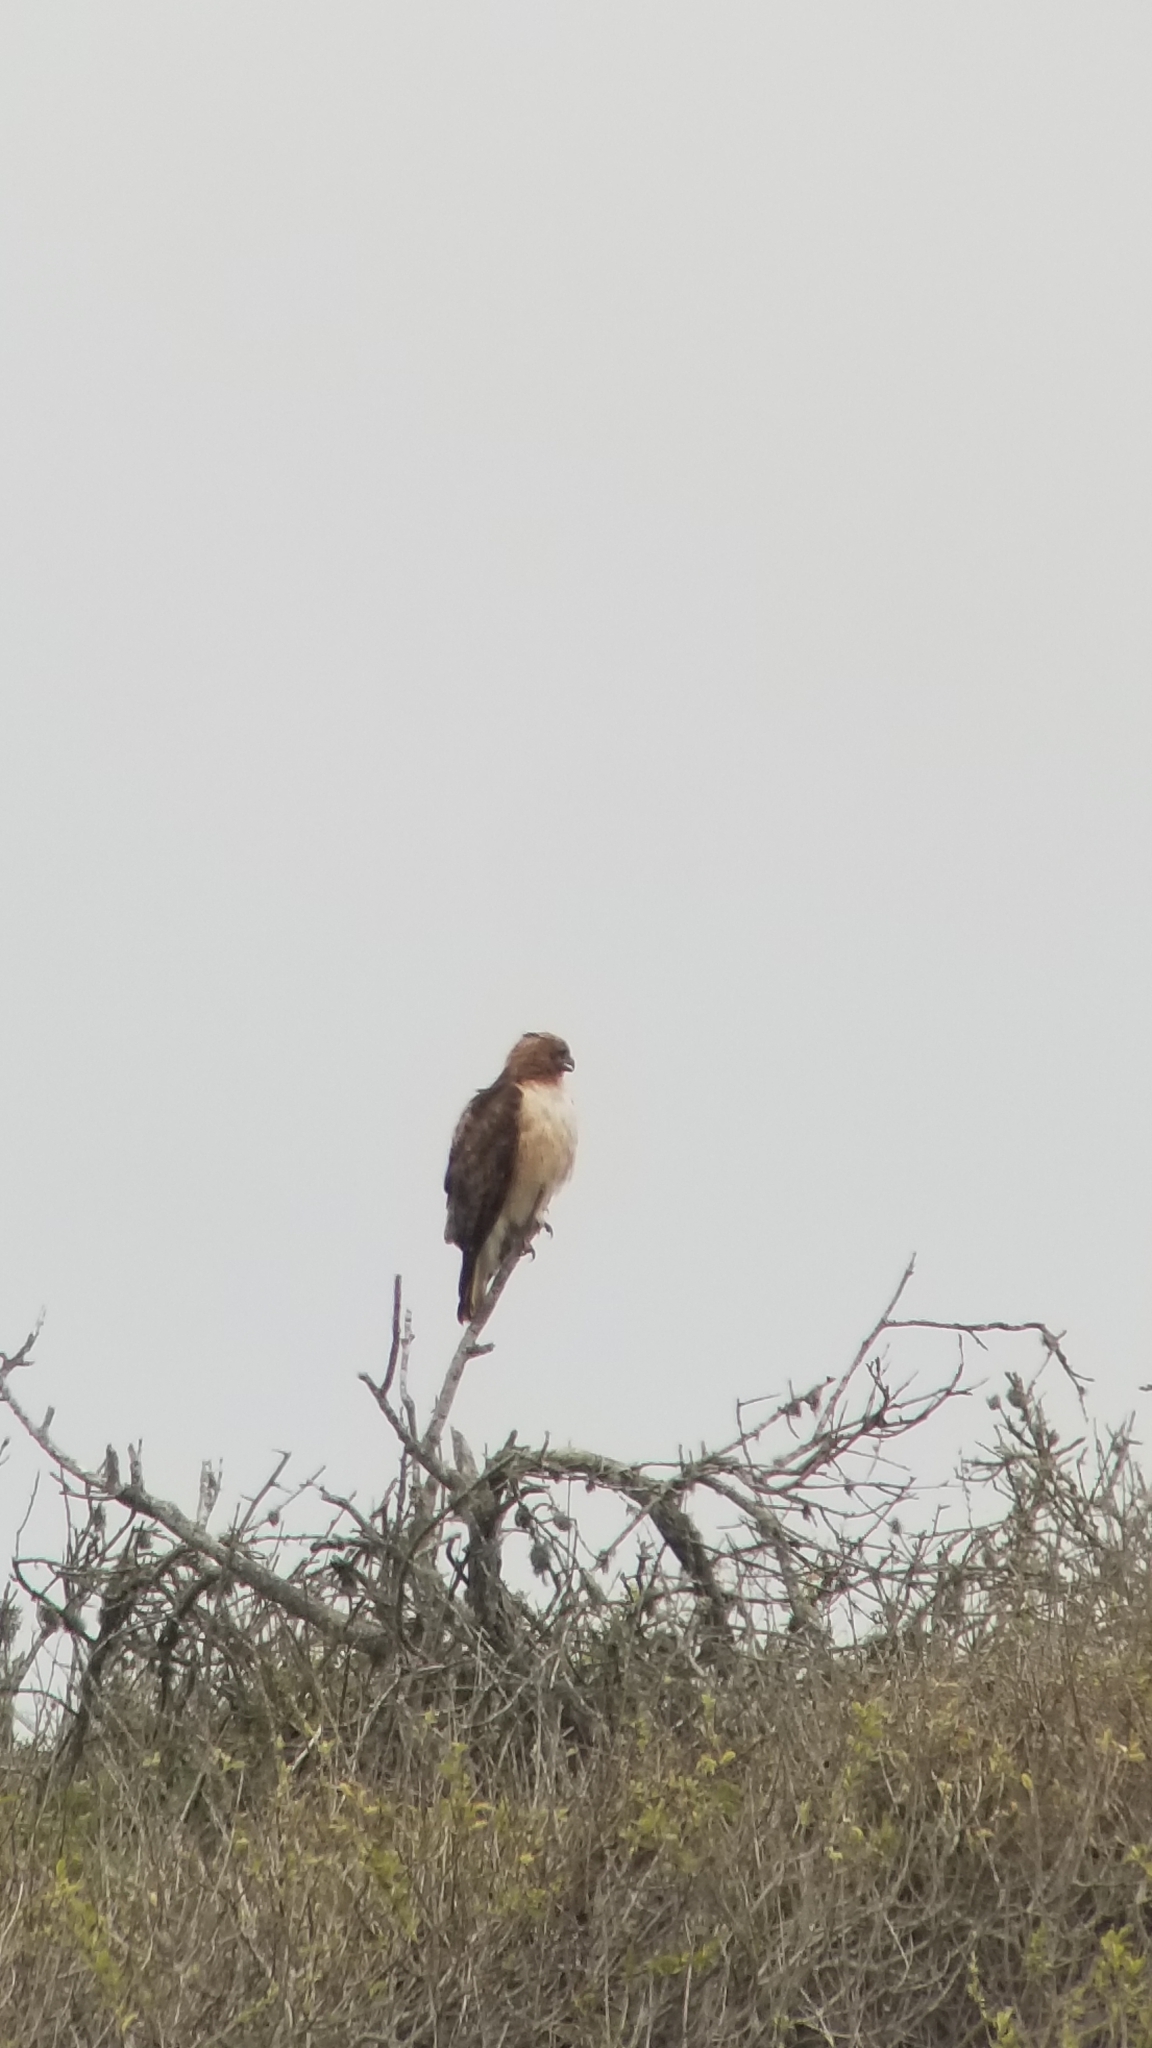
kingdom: Animalia
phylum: Chordata
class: Aves
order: Accipitriformes
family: Accipitridae
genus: Buteo
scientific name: Buteo jamaicensis
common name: Red-tailed hawk
